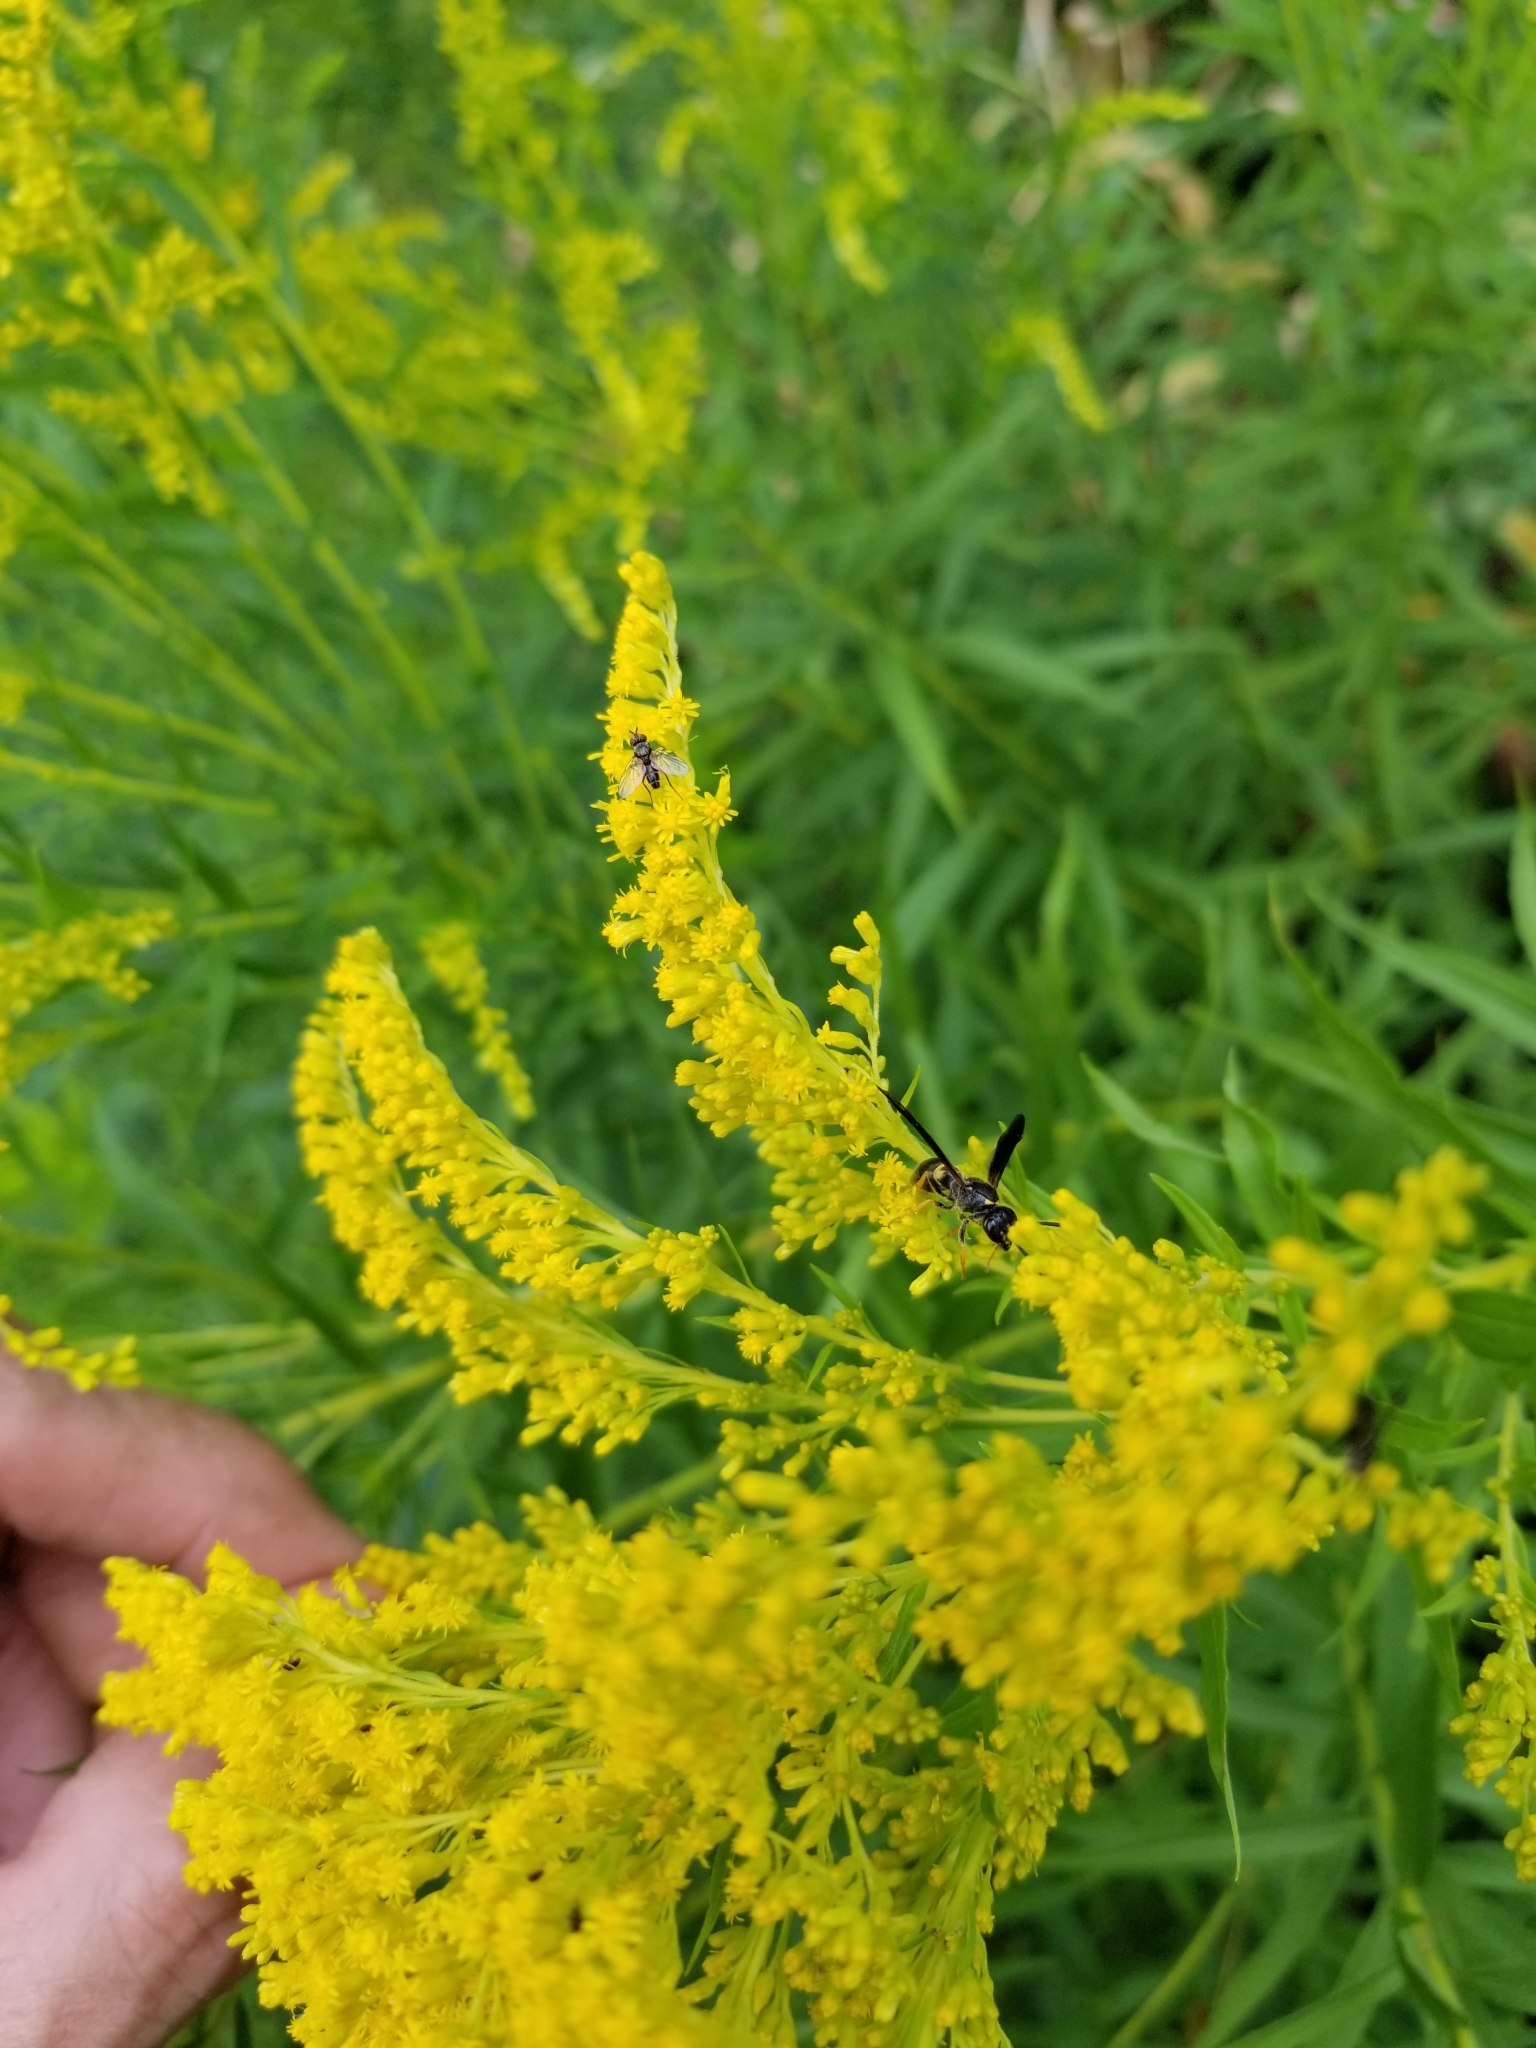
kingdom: Animalia
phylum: Arthropoda
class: Insecta
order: Hymenoptera
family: Vespidae
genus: Ancistrocerus
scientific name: Ancistrocerus unifasciatus
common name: One-banded mason wasp
